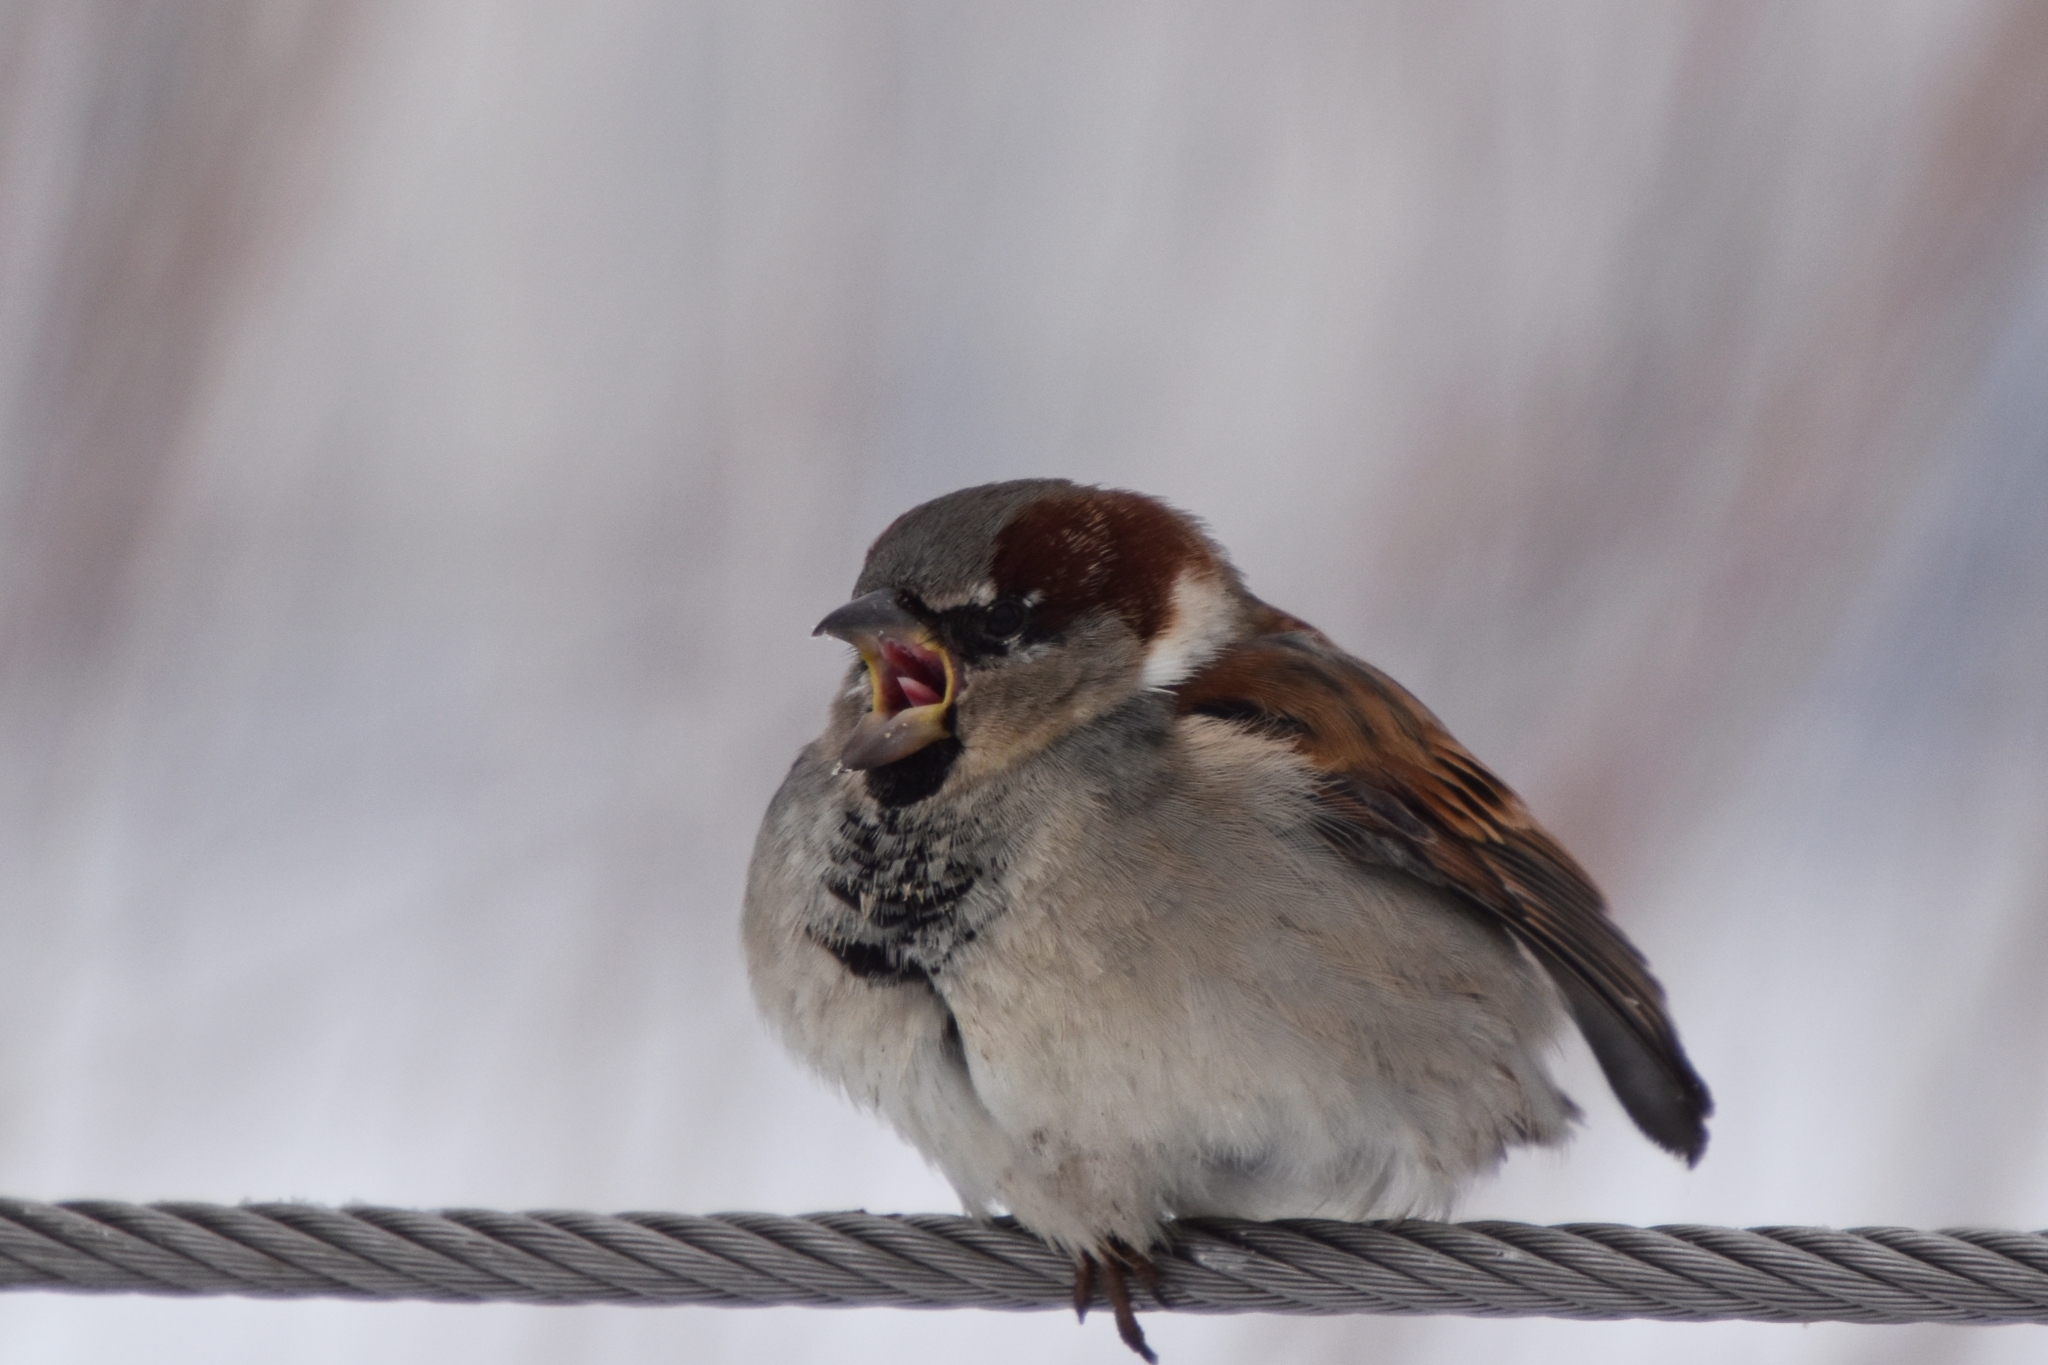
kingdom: Animalia
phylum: Chordata
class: Aves
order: Passeriformes
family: Passeridae
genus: Passer
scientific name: Passer domesticus
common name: House sparrow
